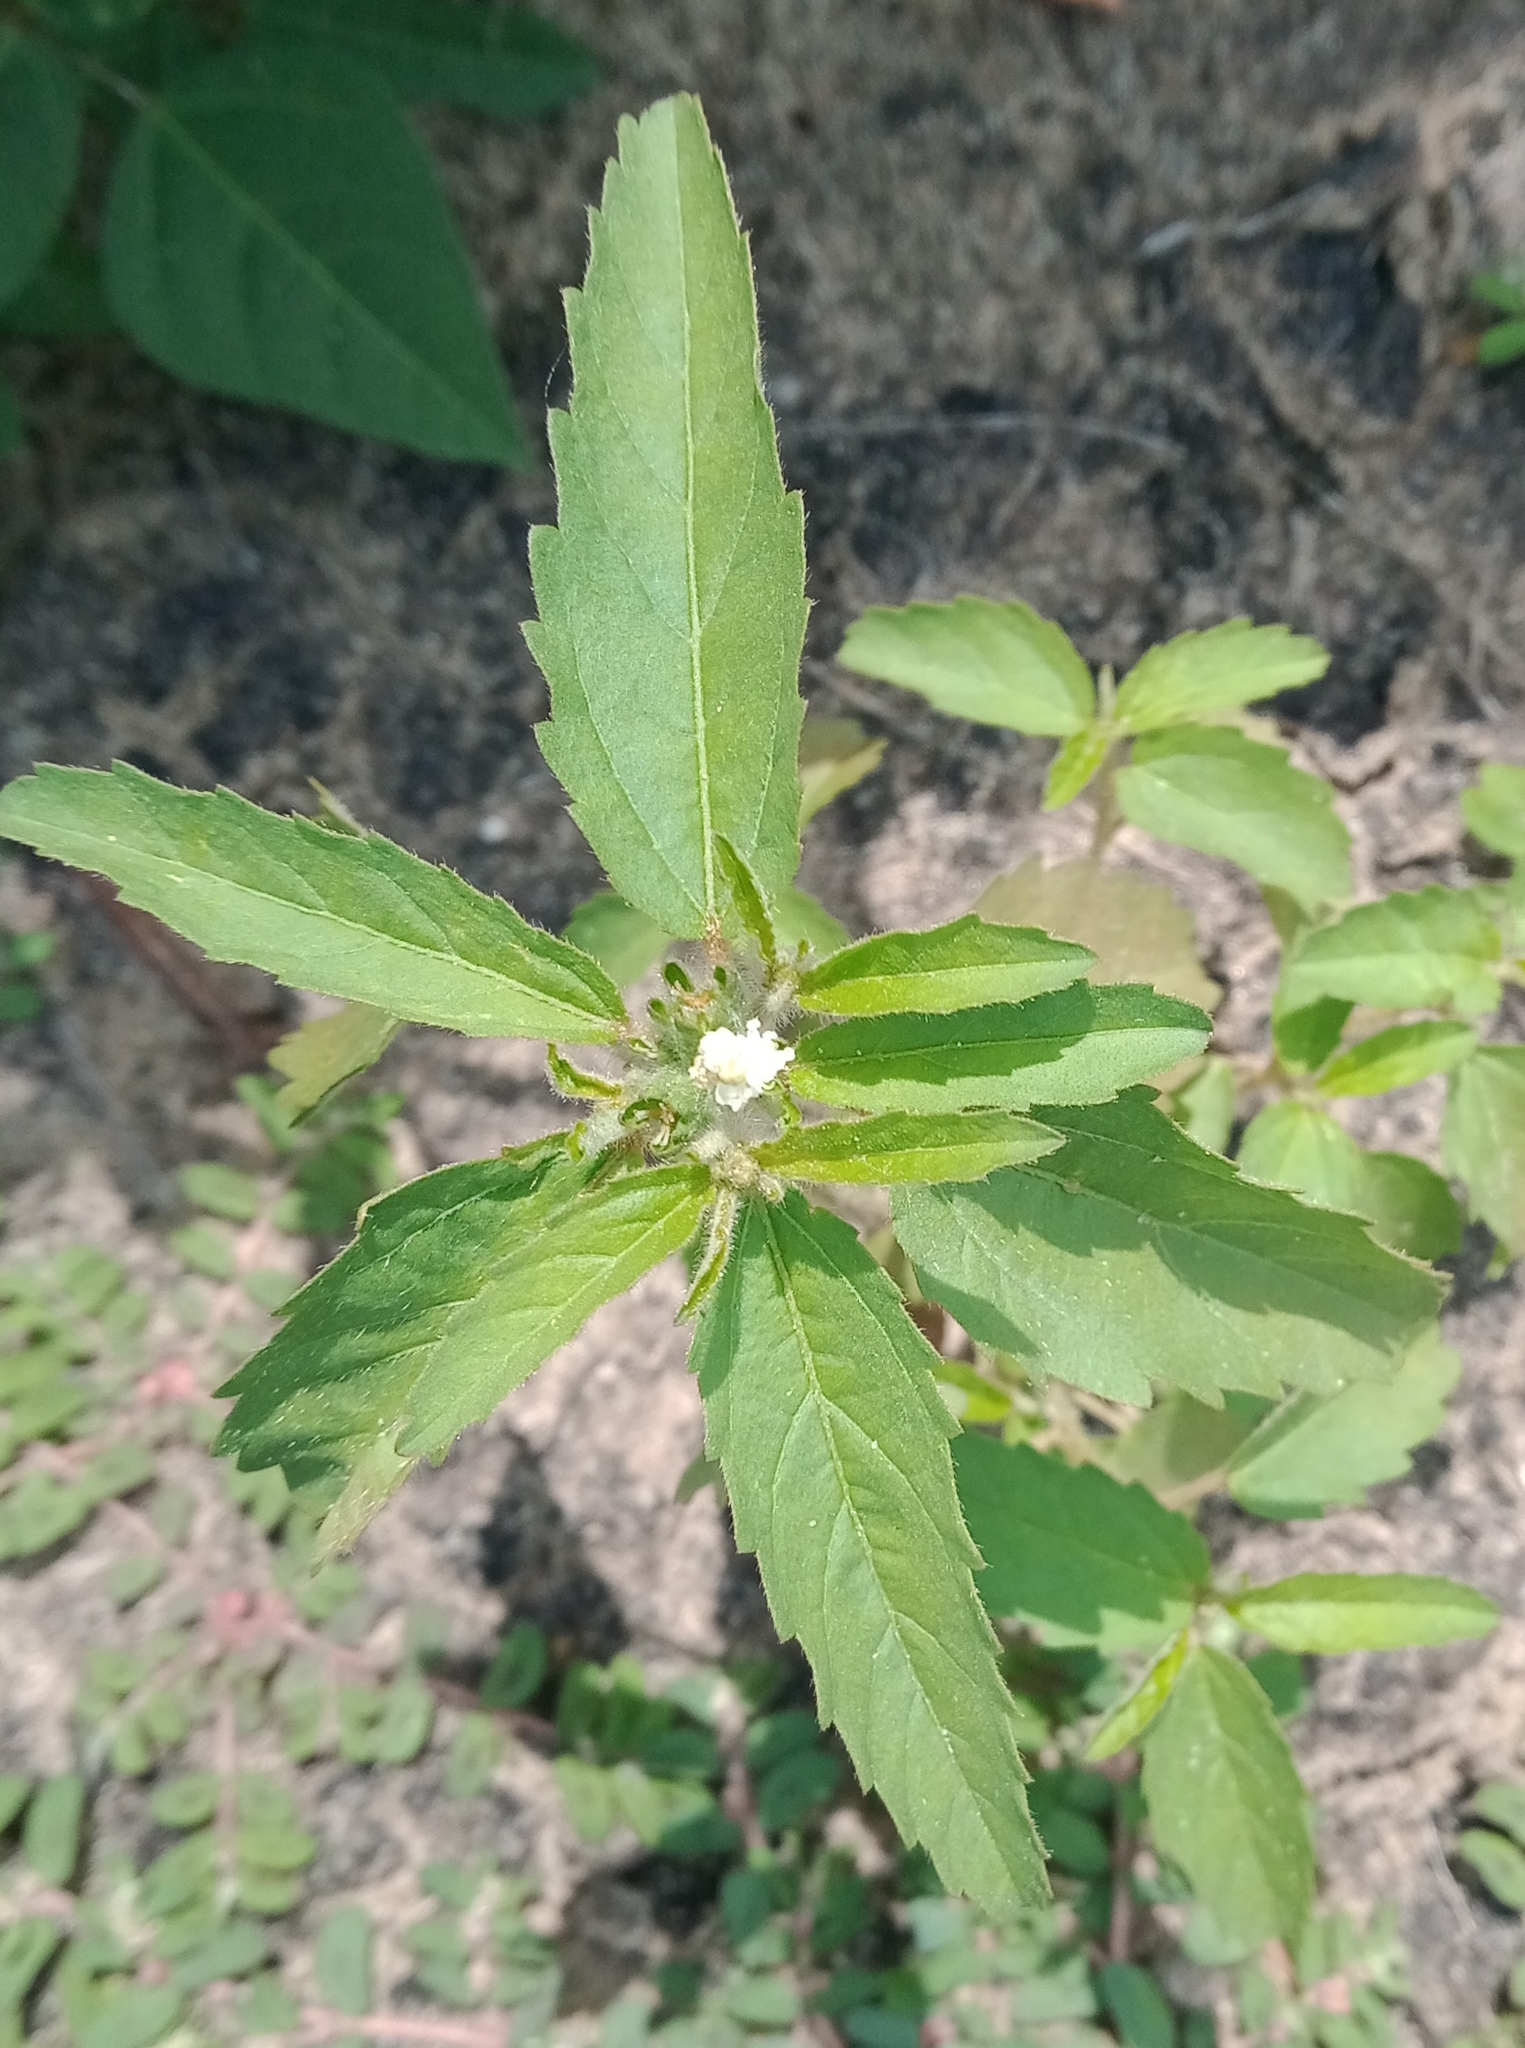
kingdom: Plantae
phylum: Tracheophyta
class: Magnoliopsida
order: Malpighiales
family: Euphorbiaceae
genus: Croton
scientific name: Croton glandulosus
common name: Tropic croton
